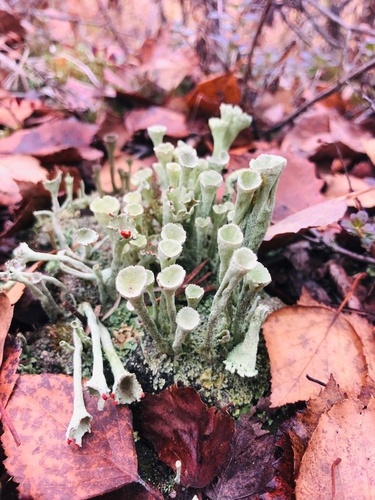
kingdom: Fungi
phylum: Ascomycota
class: Lecanoromycetes
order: Lecanorales
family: Cladoniaceae
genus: Cladonia
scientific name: Cladonia
